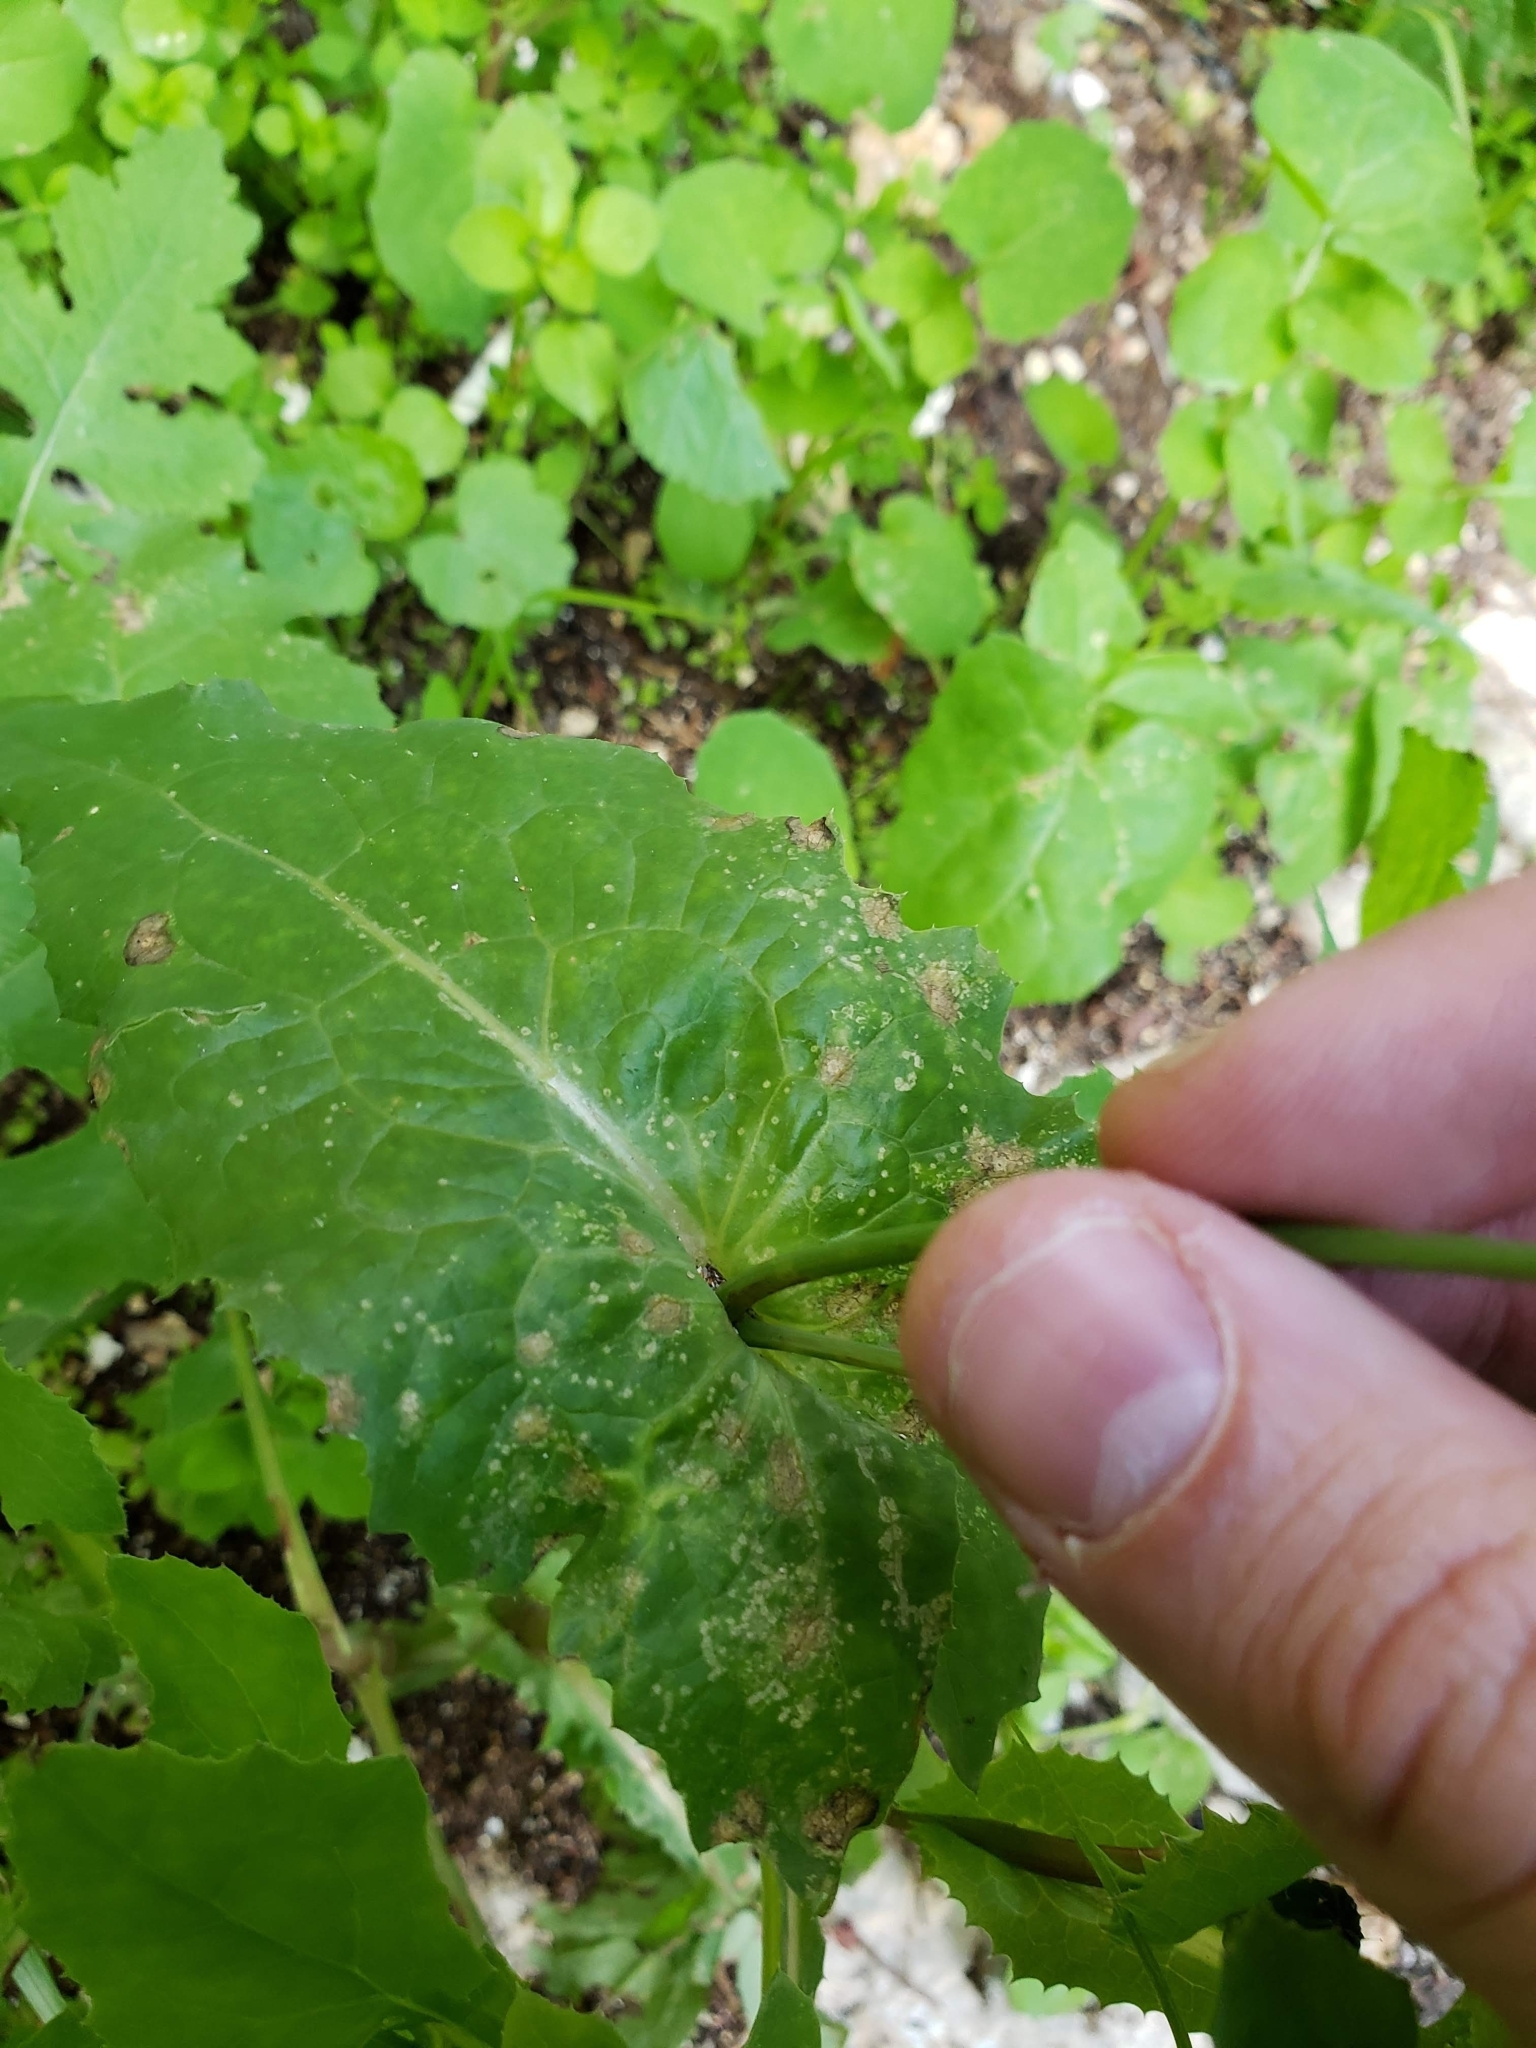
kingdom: Plantae
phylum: Tracheophyta
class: Magnoliopsida
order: Asterales
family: Asteraceae
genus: Sonchus
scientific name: Sonchus oleraceus
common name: Common sowthistle
